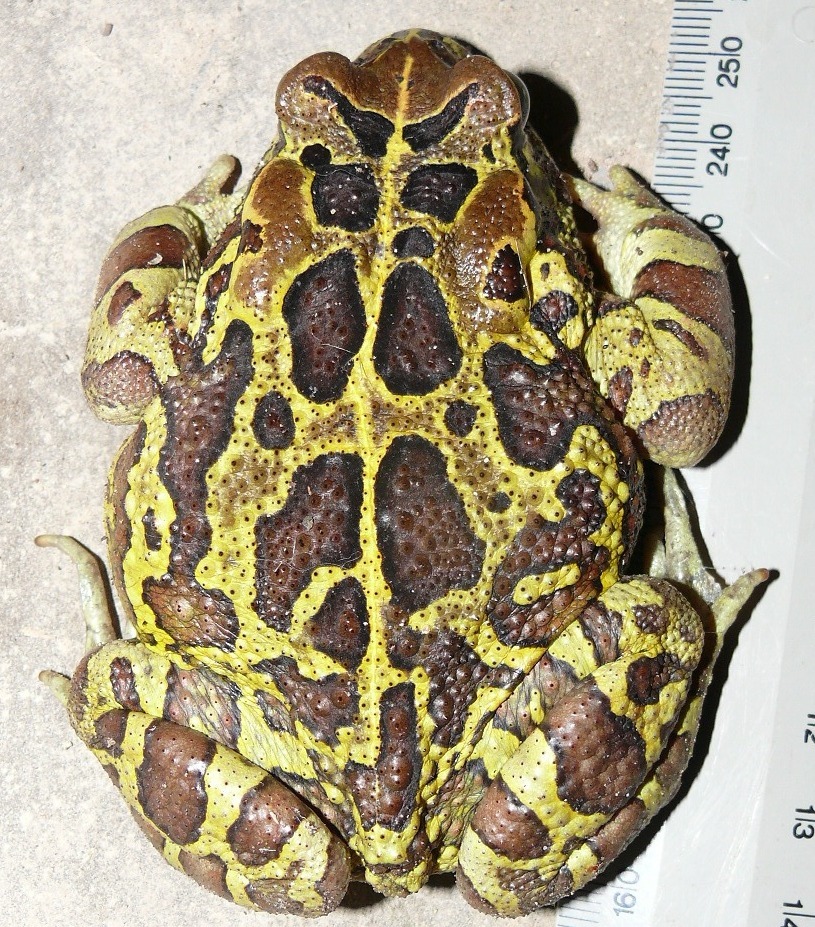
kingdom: Animalia
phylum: Chordata
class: Amphibia
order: Anura
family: Bufonidae
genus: Sclerophrys
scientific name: Sclerophrys pantherina
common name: Panther toad
